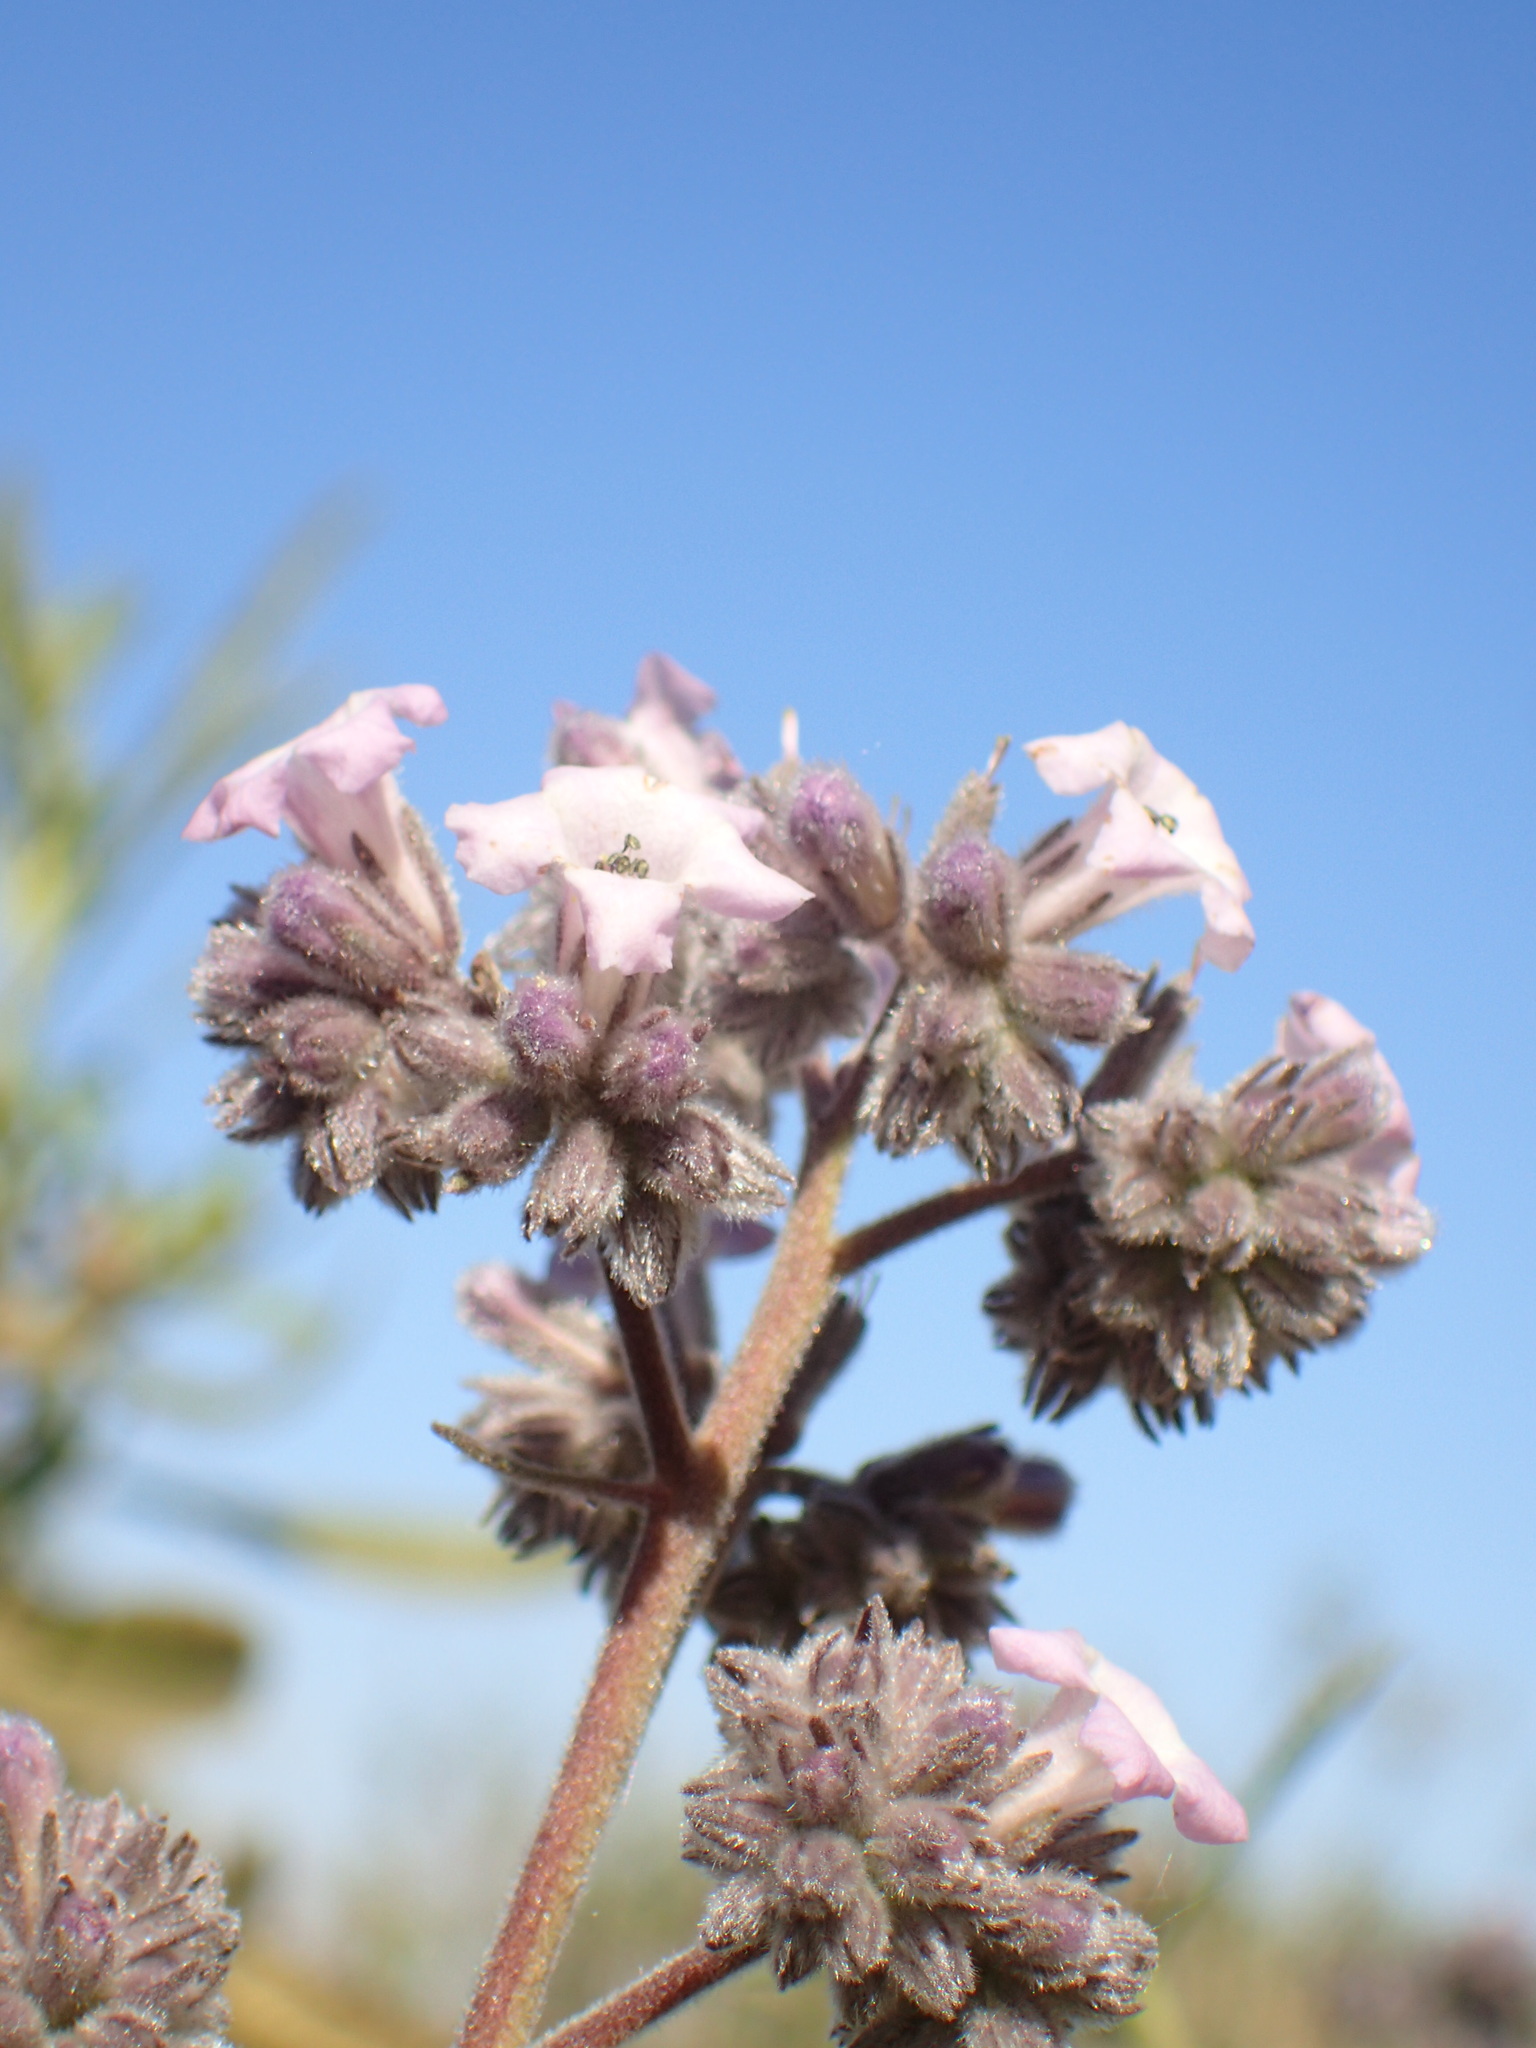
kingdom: Plantae
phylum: Tracheophyta
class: Magnoliopsida
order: Boraginales
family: Namaceae
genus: Eriodictyon
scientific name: Eriodictyon crassifolium
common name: Thick-leaf yerba-santa
